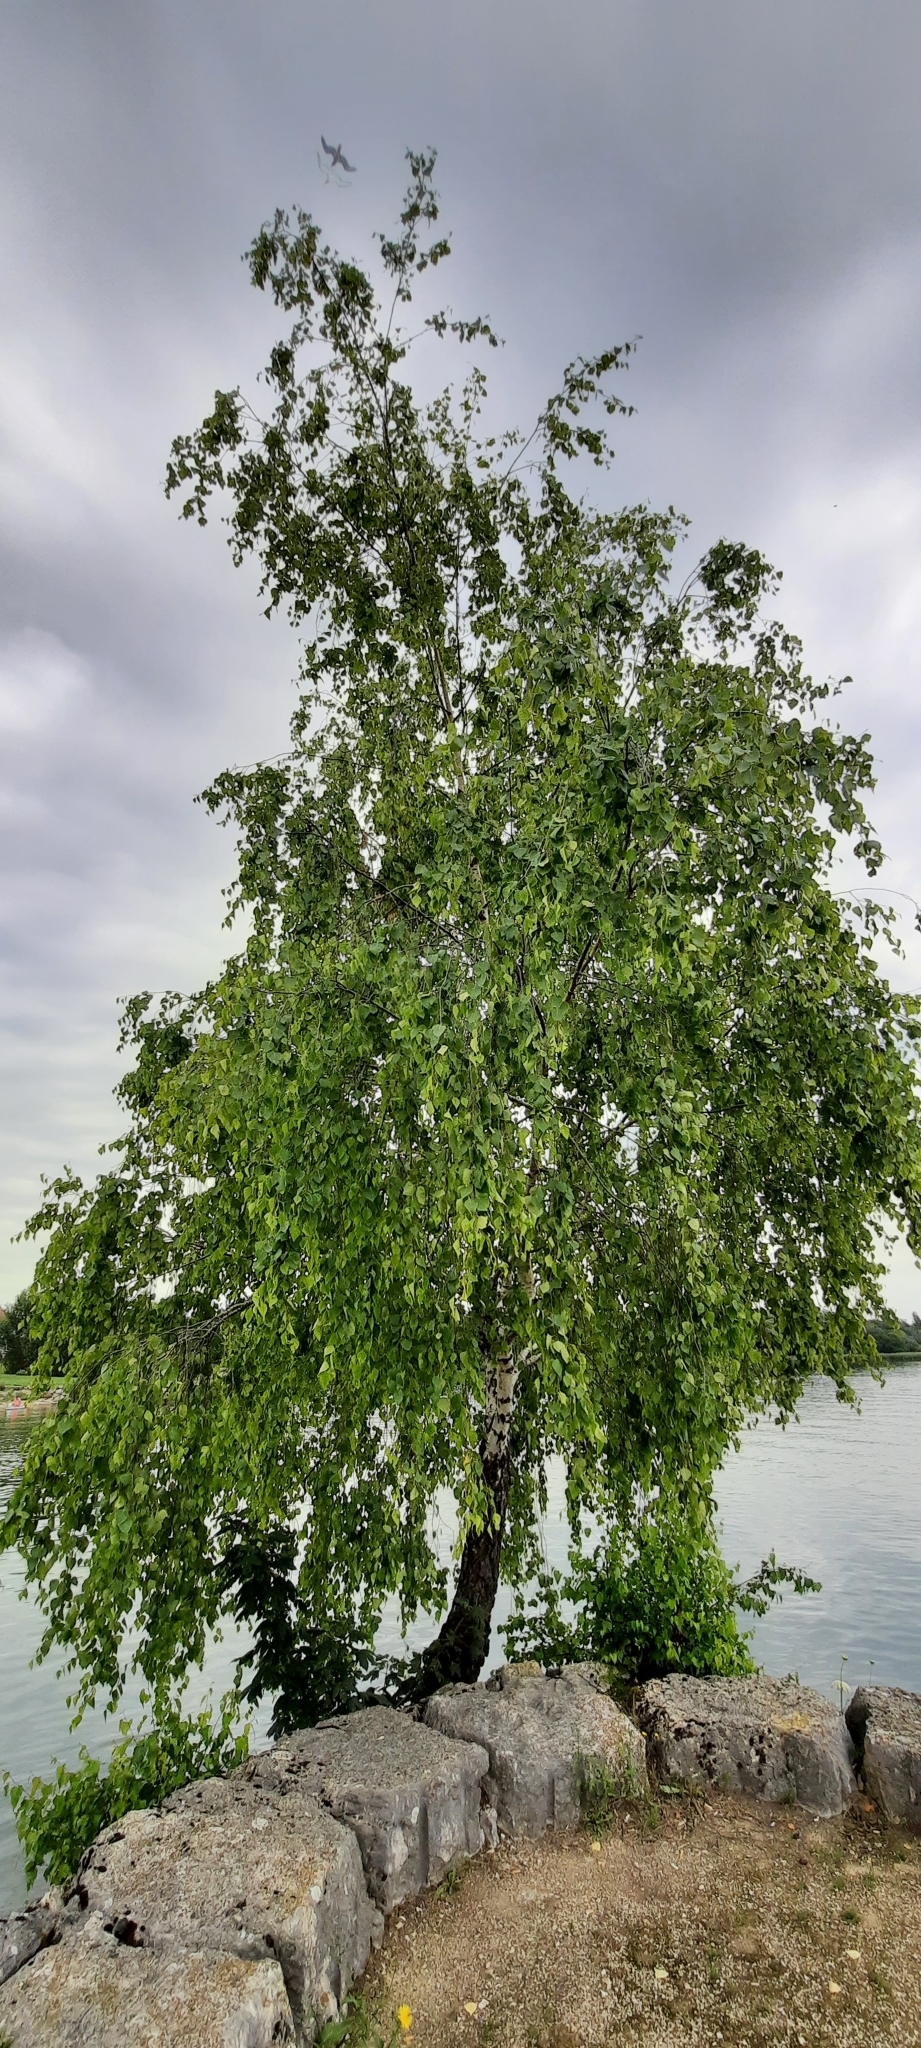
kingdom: Plantae
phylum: Tracheophyta
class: Magnoliopsida
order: Fagales
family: Betulaceae
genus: Betula
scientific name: Betula pendula
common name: Silver birch
